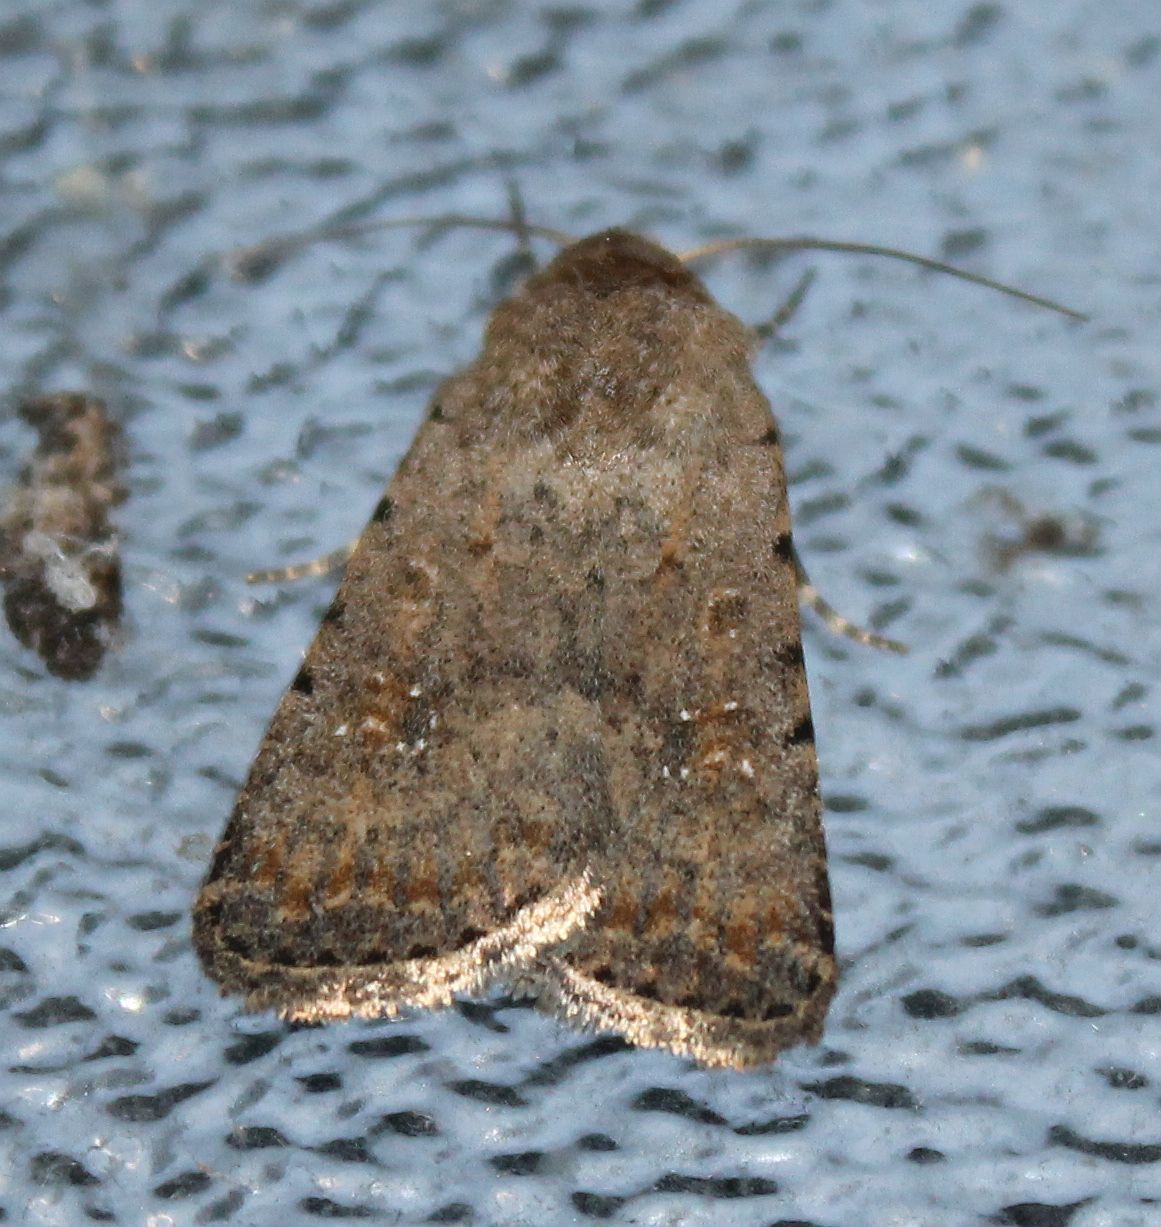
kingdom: Animalia
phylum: Arthropoda
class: Insecta
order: Lepidoptera
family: Noctuidae
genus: Caradrina
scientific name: Caradrina clavipalpis
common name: Pale mottled willow
